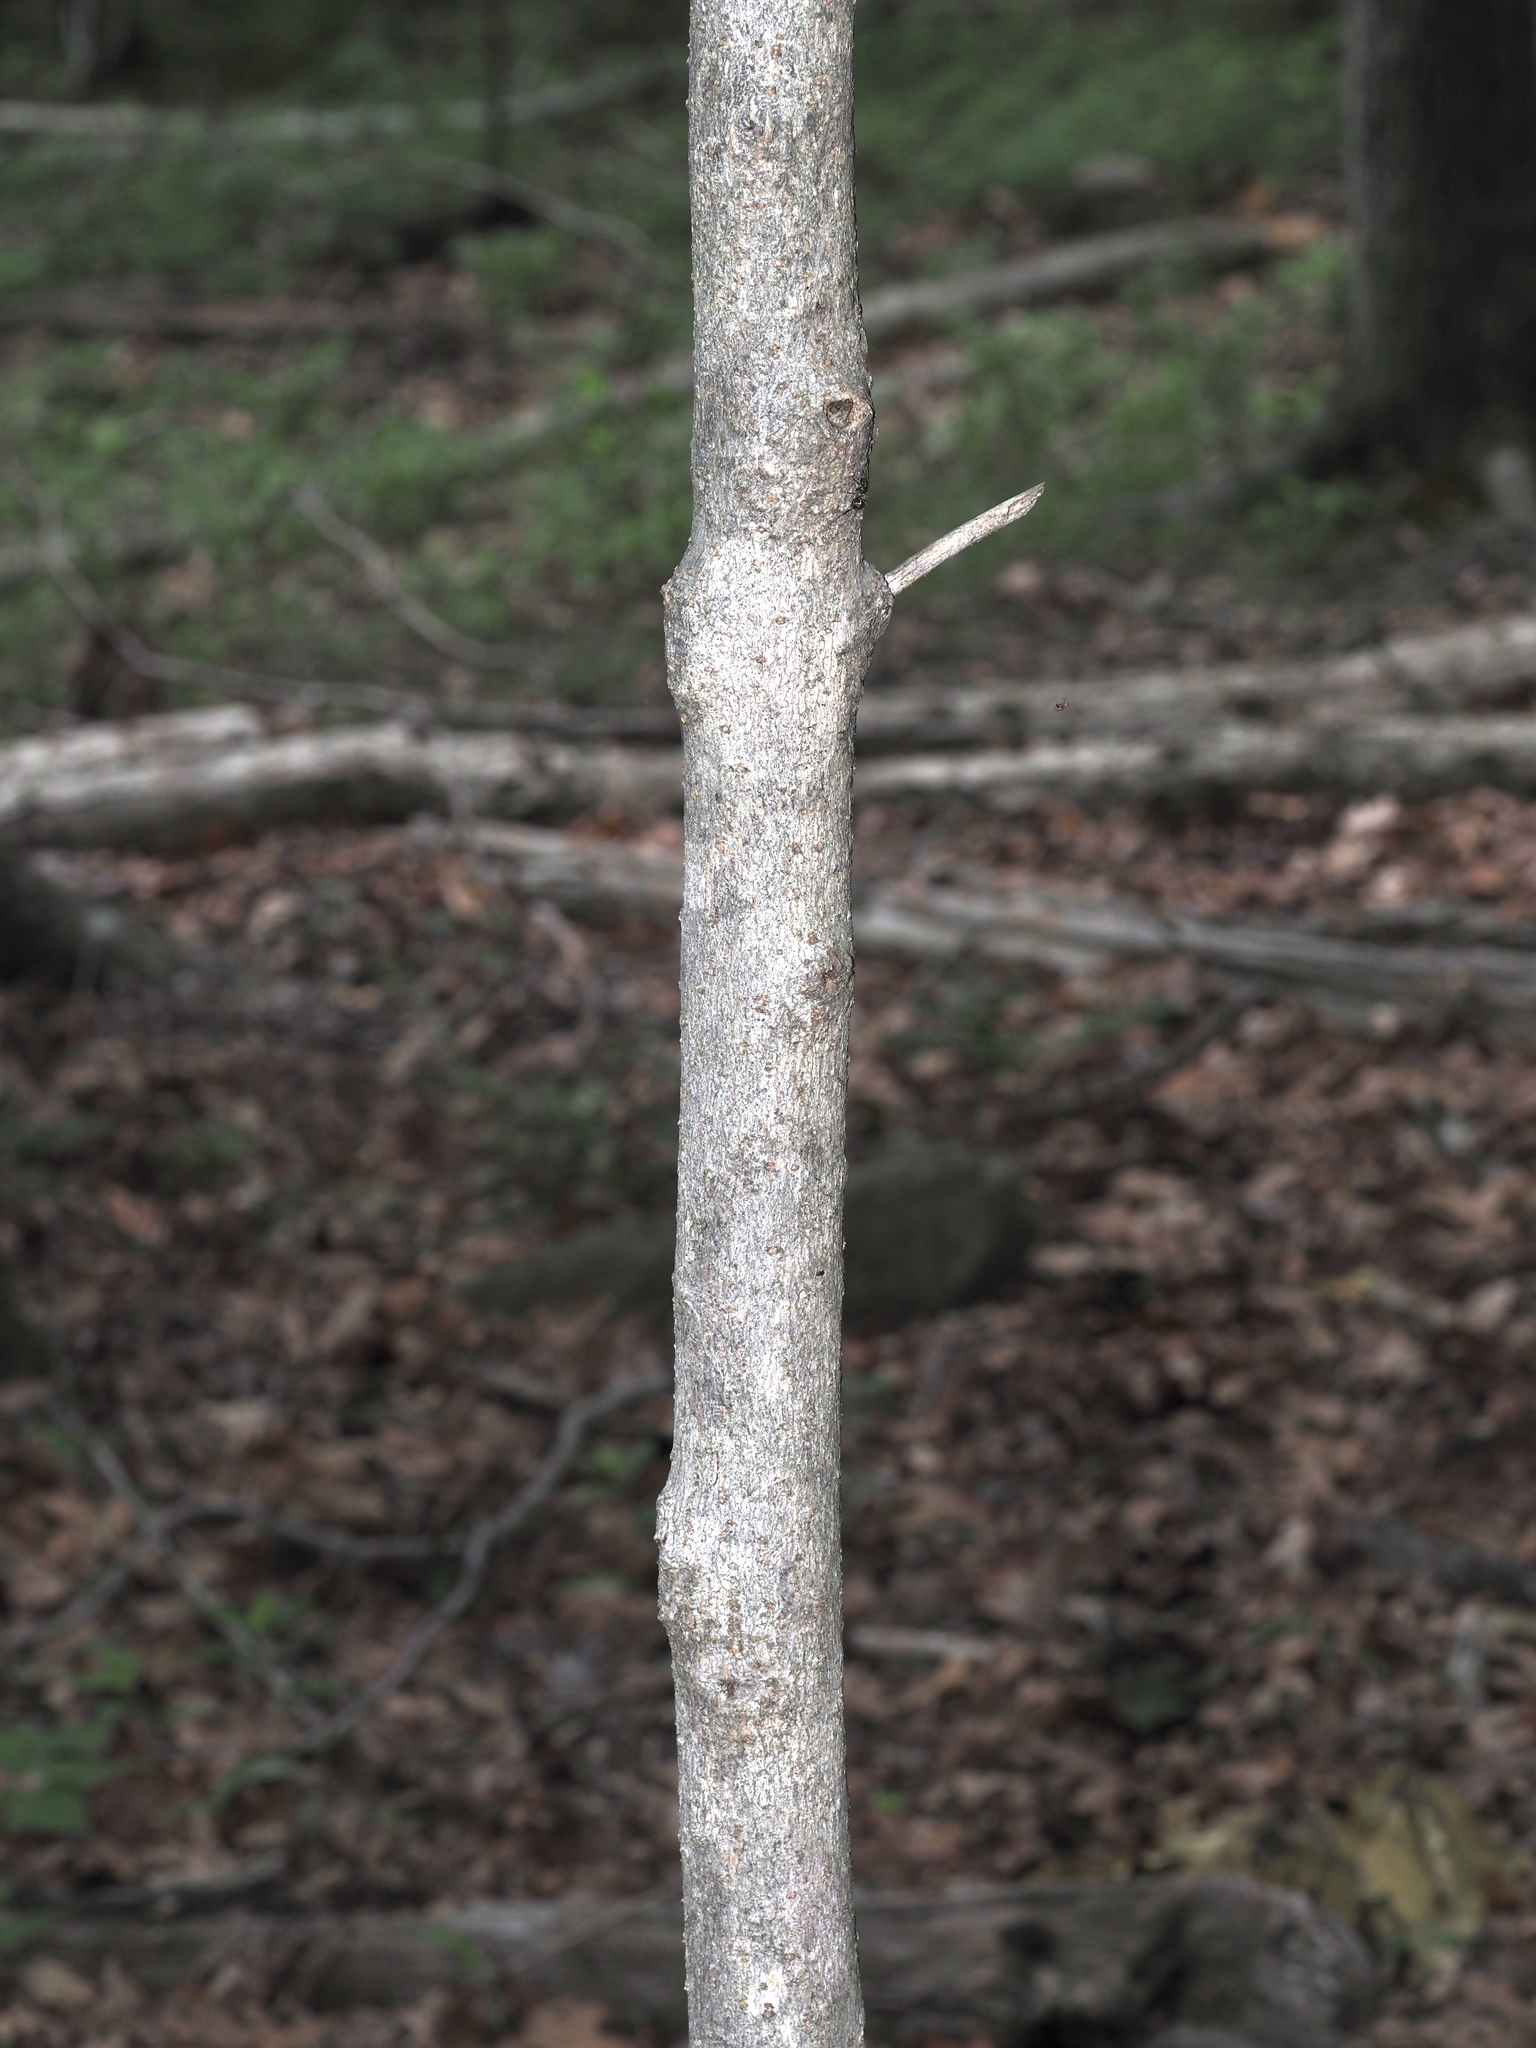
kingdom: Plantae
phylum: Tracheophyta
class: Magnoliopsida
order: Lamiales
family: Oleaceae
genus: Chionanthus
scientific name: Chionanthus virginicus
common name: American fringetree
